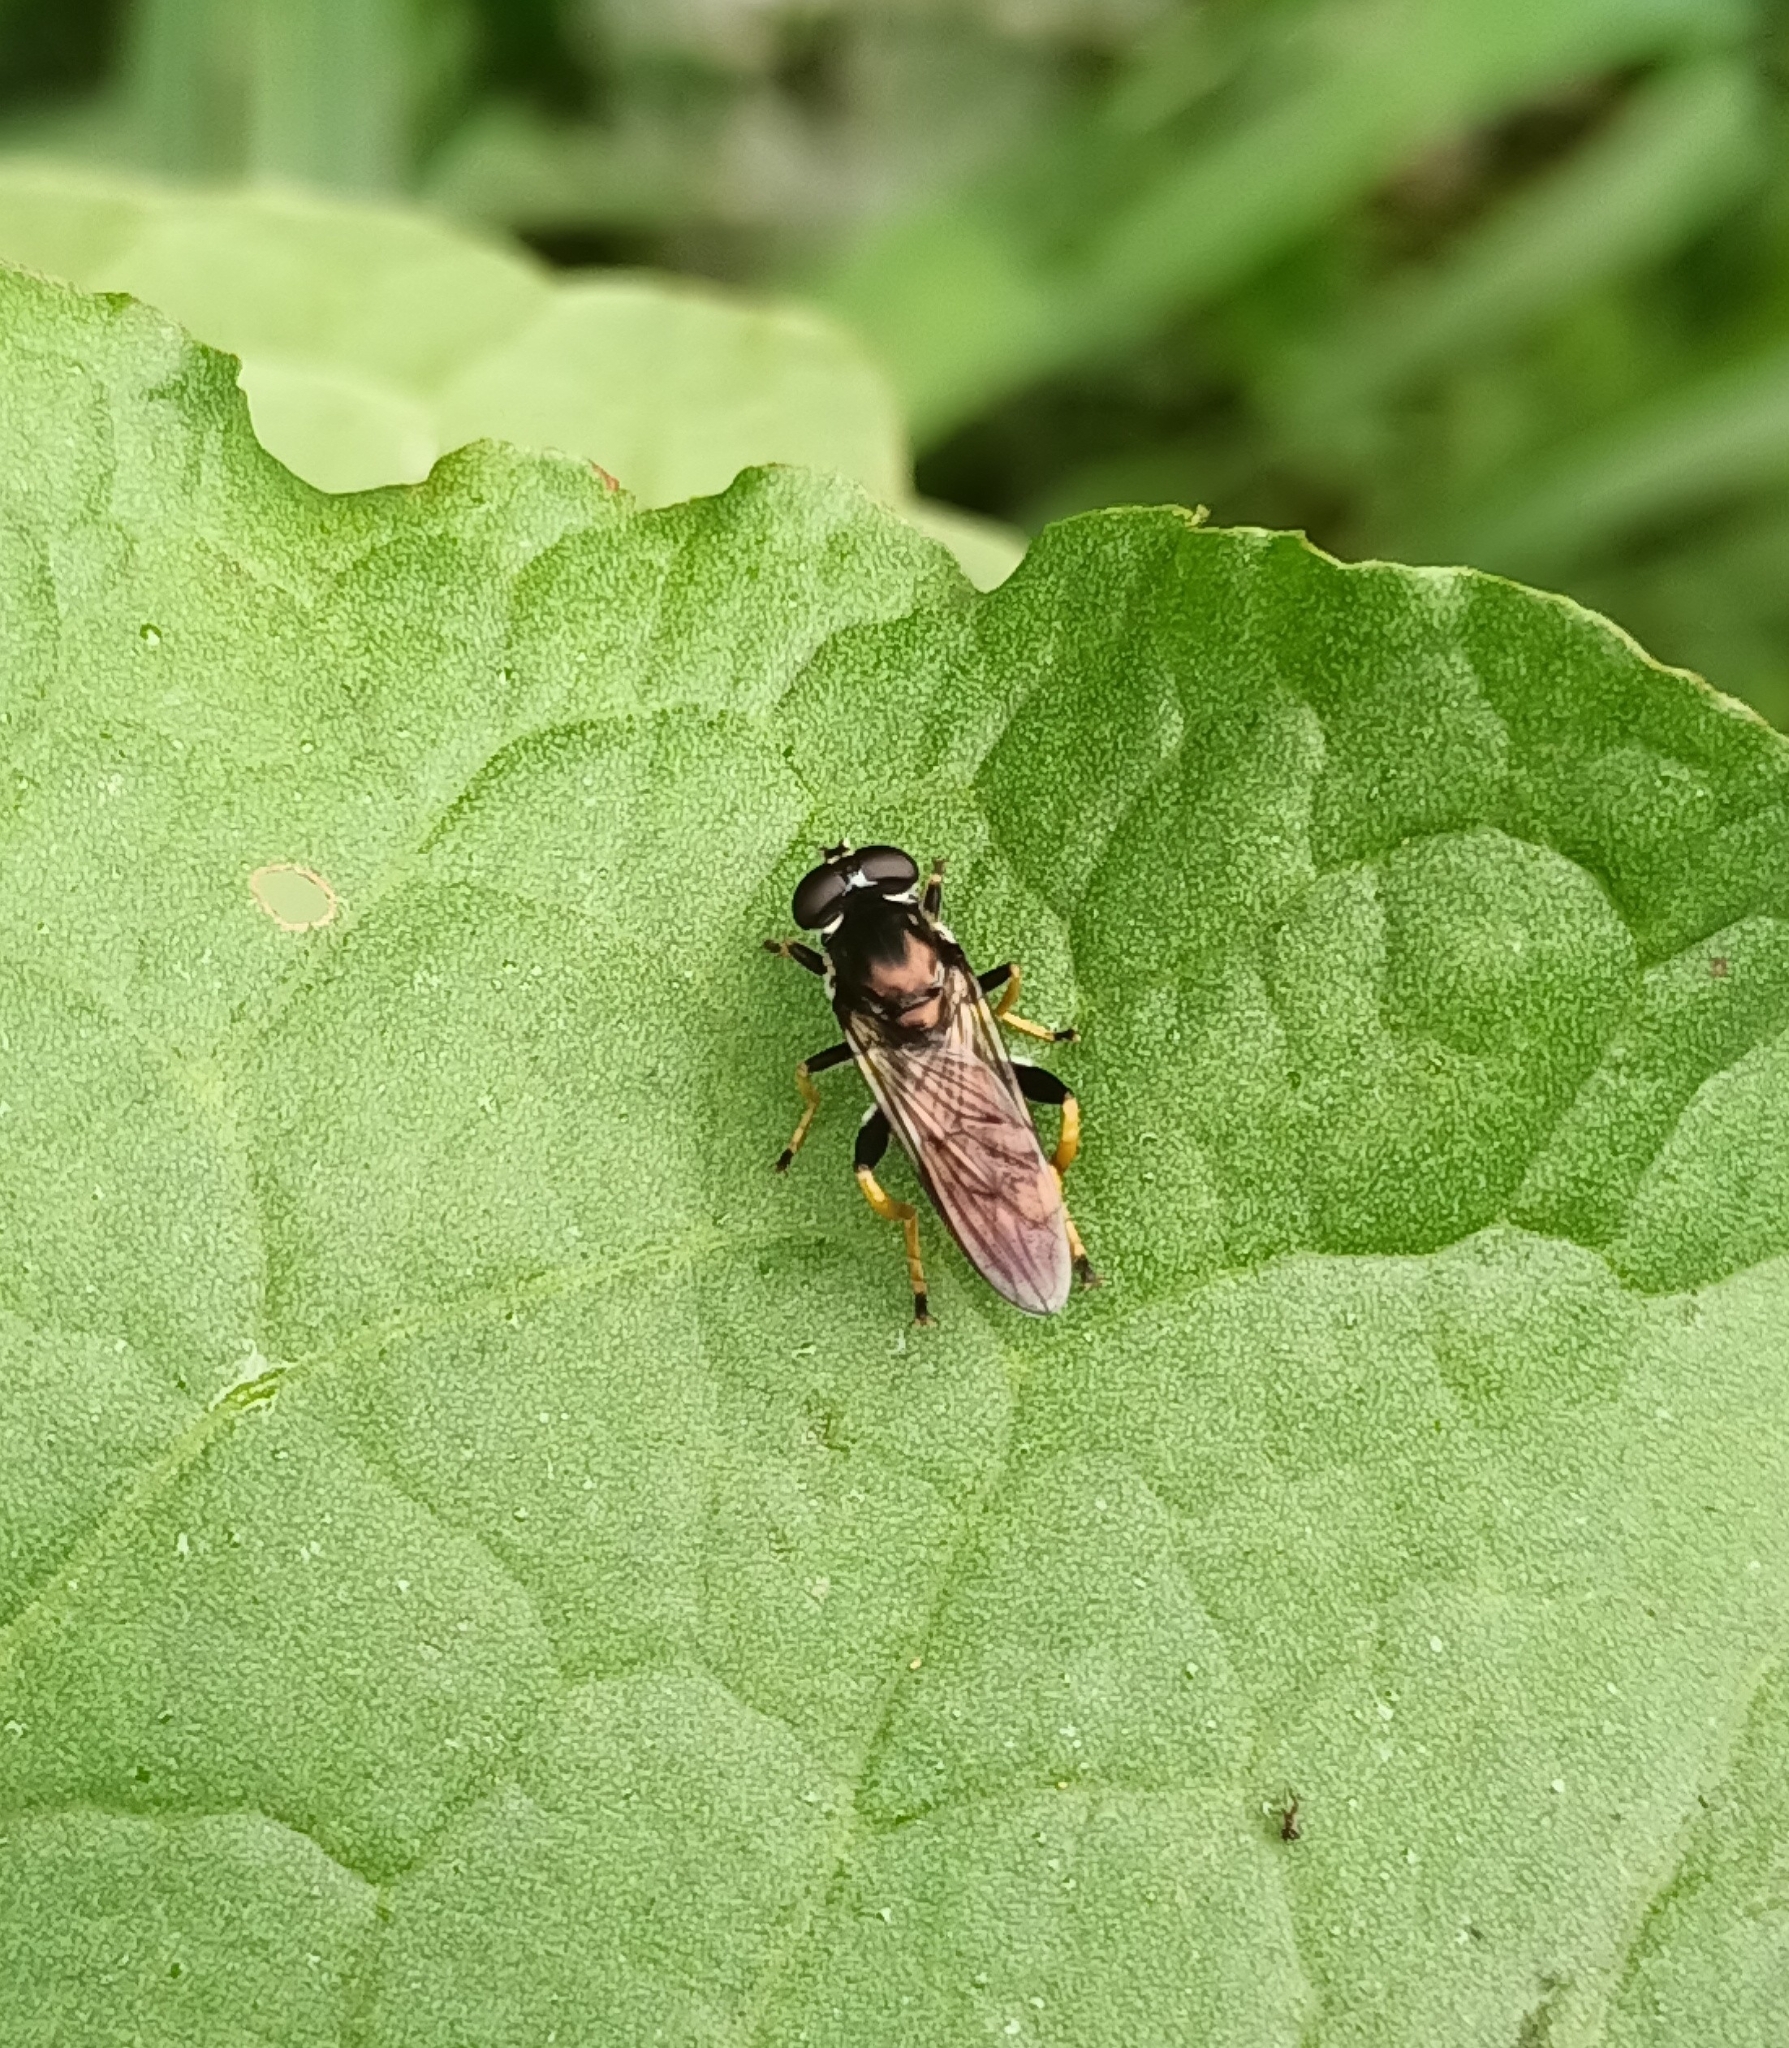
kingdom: Animalia
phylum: Arthropoda
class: Insecta
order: Diptera
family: Syrphidae
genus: Xylota
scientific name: Xylota sylvarum
